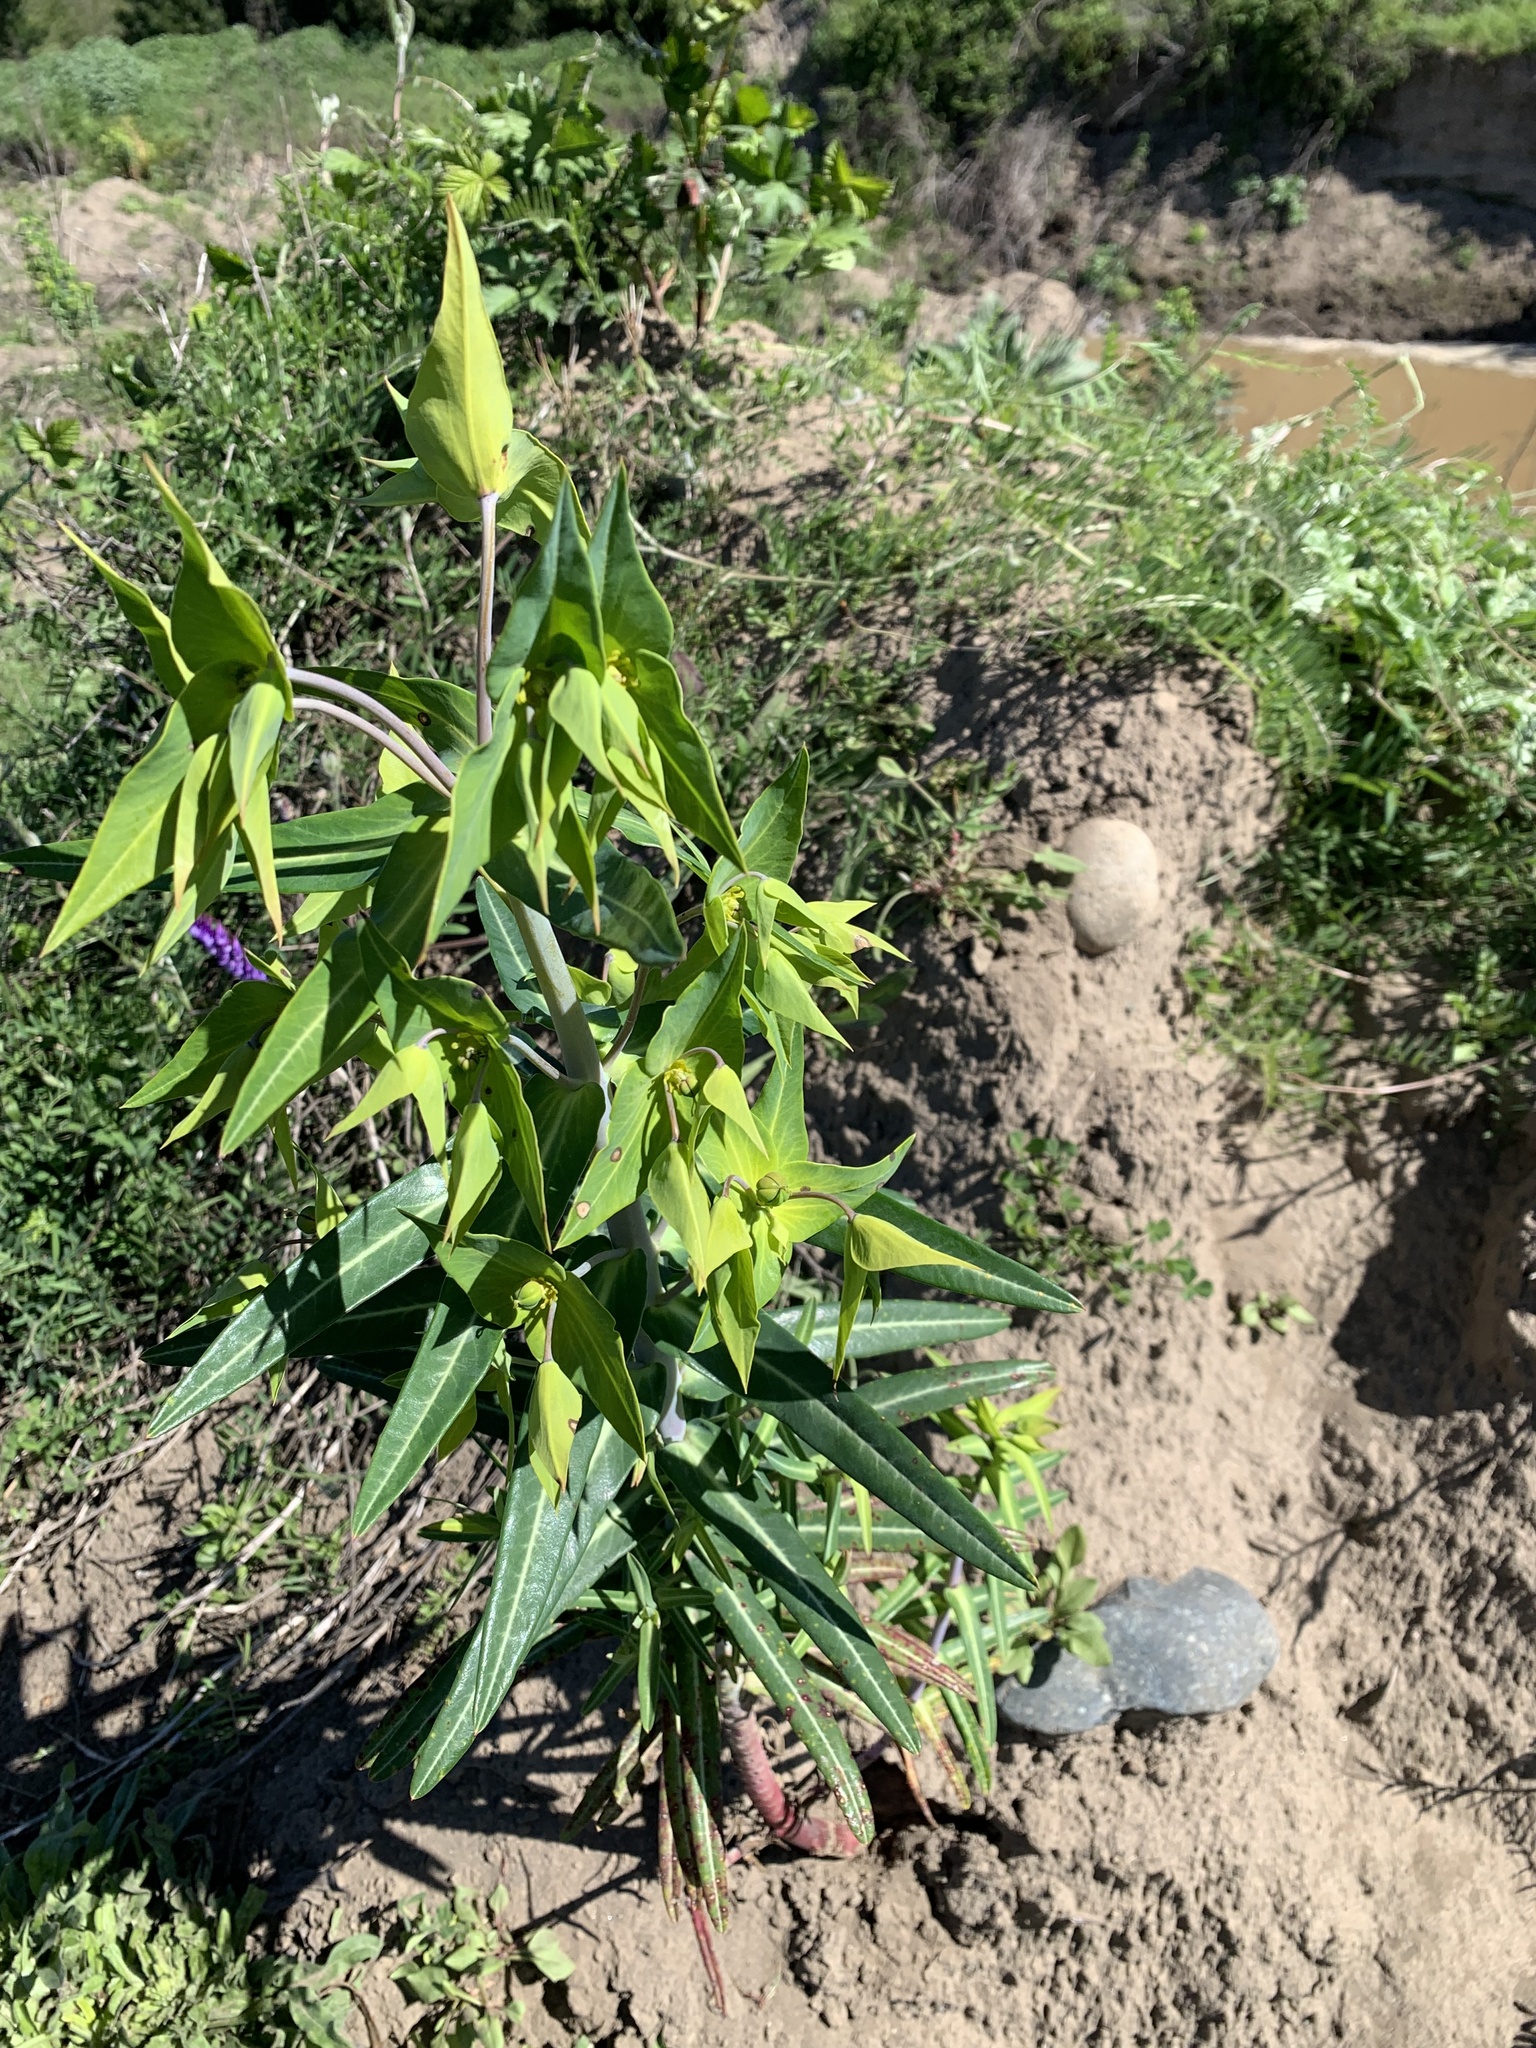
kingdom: Plantae
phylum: Tracheophyta
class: Magnoliopsida
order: Malpighiales
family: Euphorbiaceae
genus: Euphorbia
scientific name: Euphorbia lathyris
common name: Caper spurge
